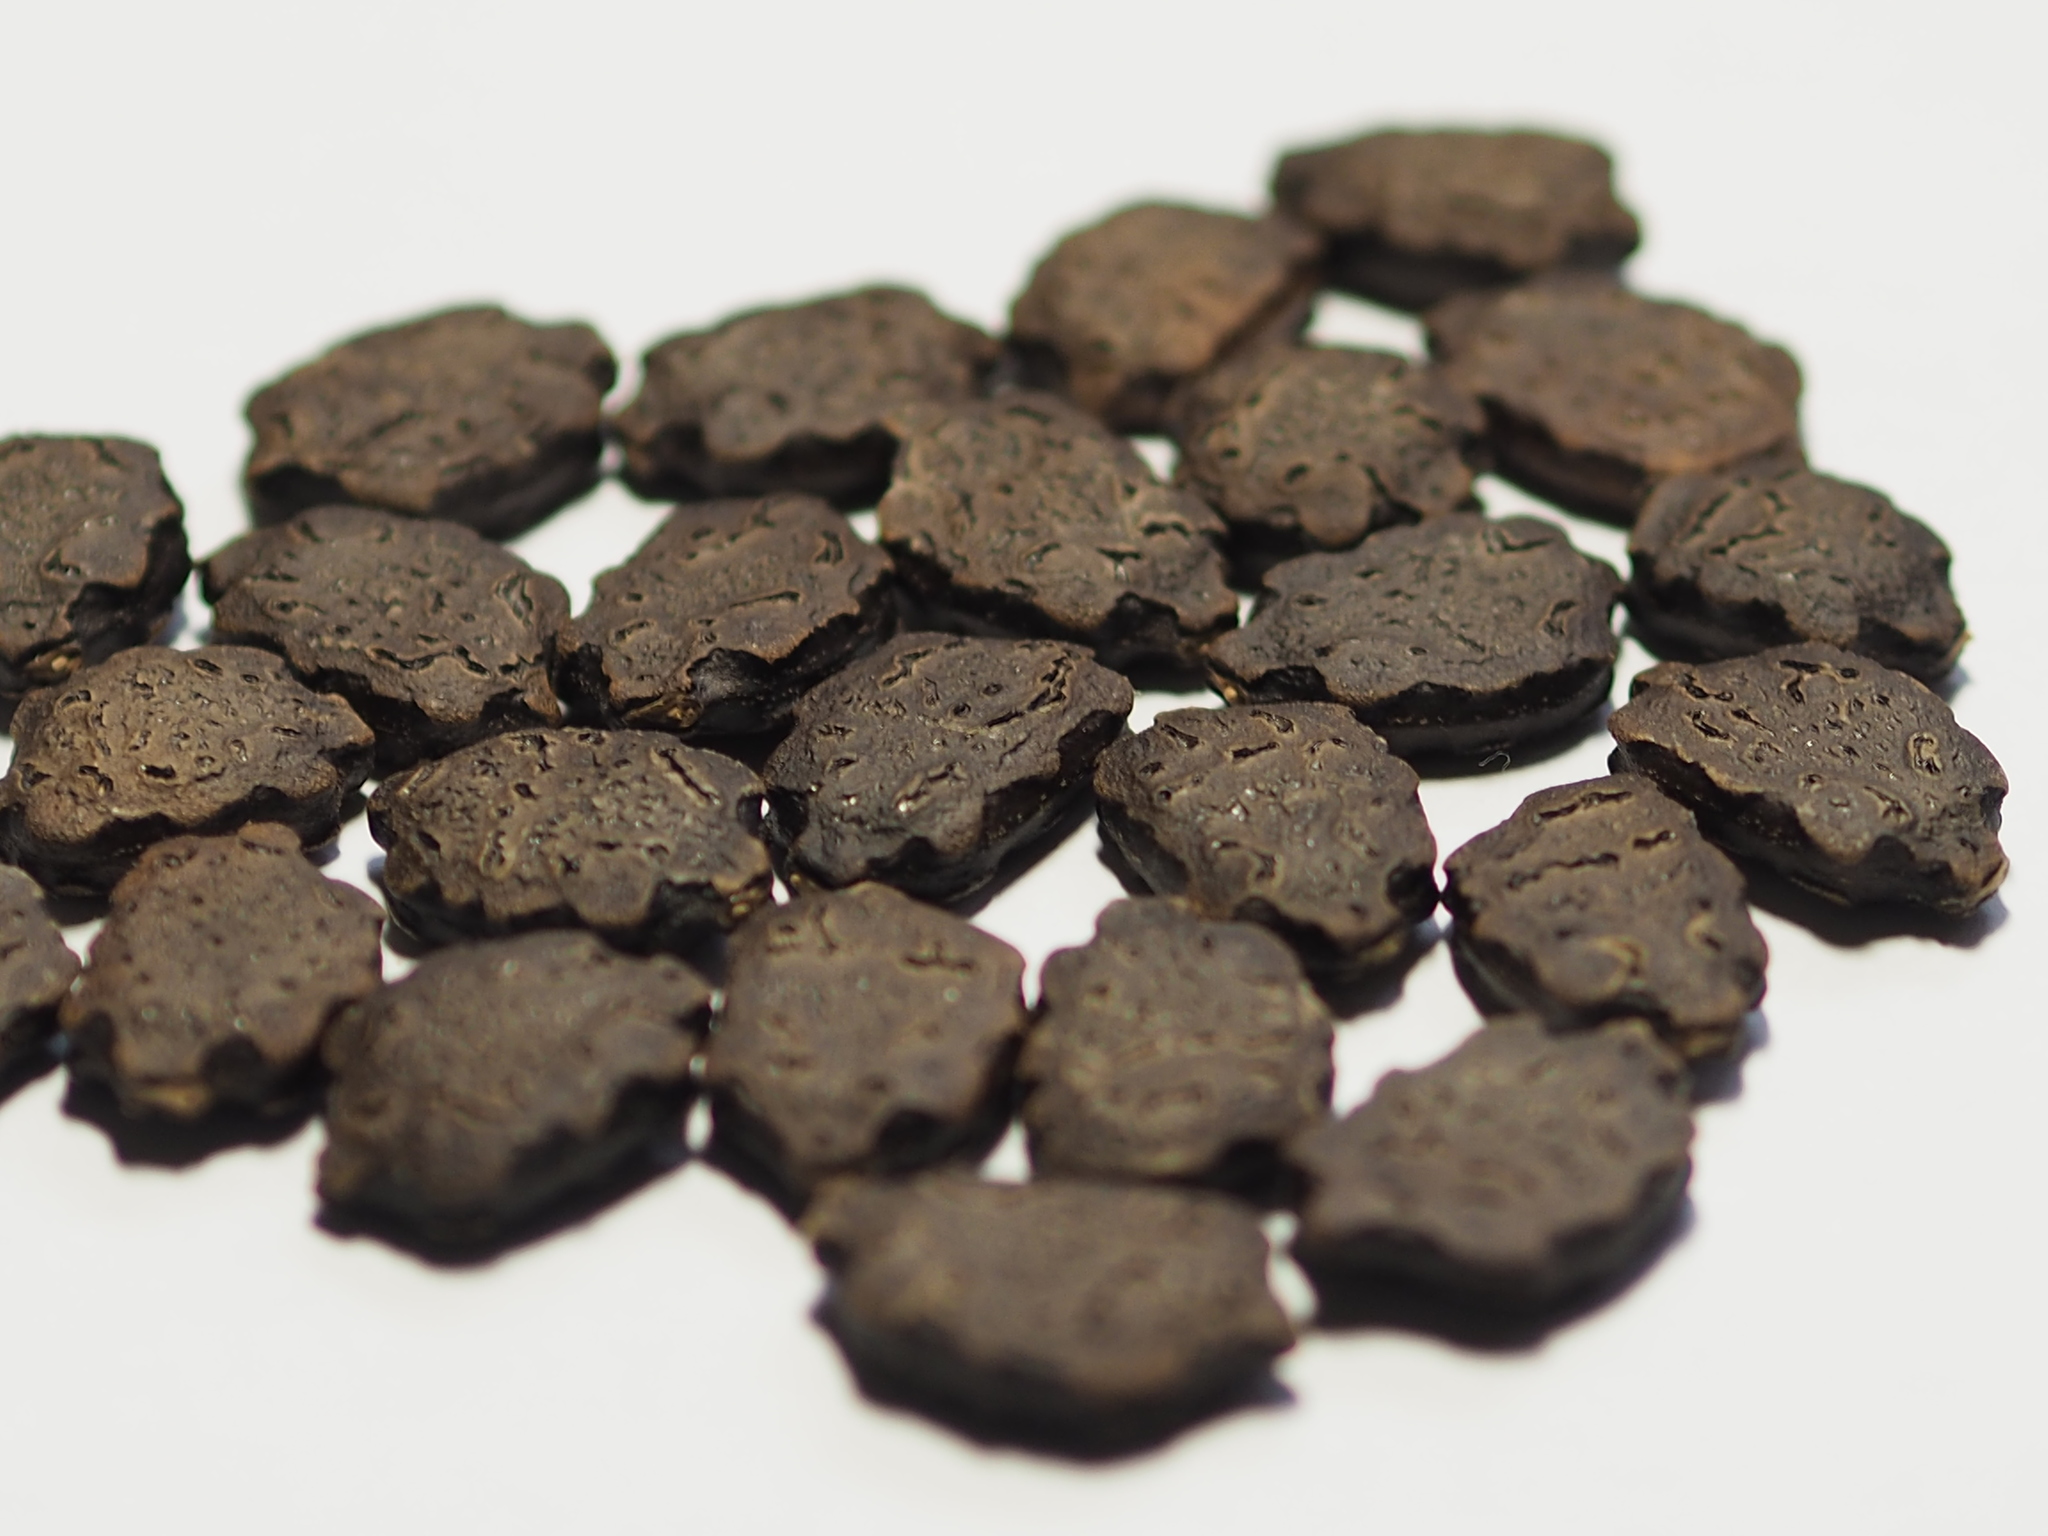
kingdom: Plantae
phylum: Tracheophyta
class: Magnoliopsida
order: Cucurbitales
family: Cucurbitaceae
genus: Momordica
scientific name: Momordica cochinchinensis
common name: Chinese bitter-cucumber
